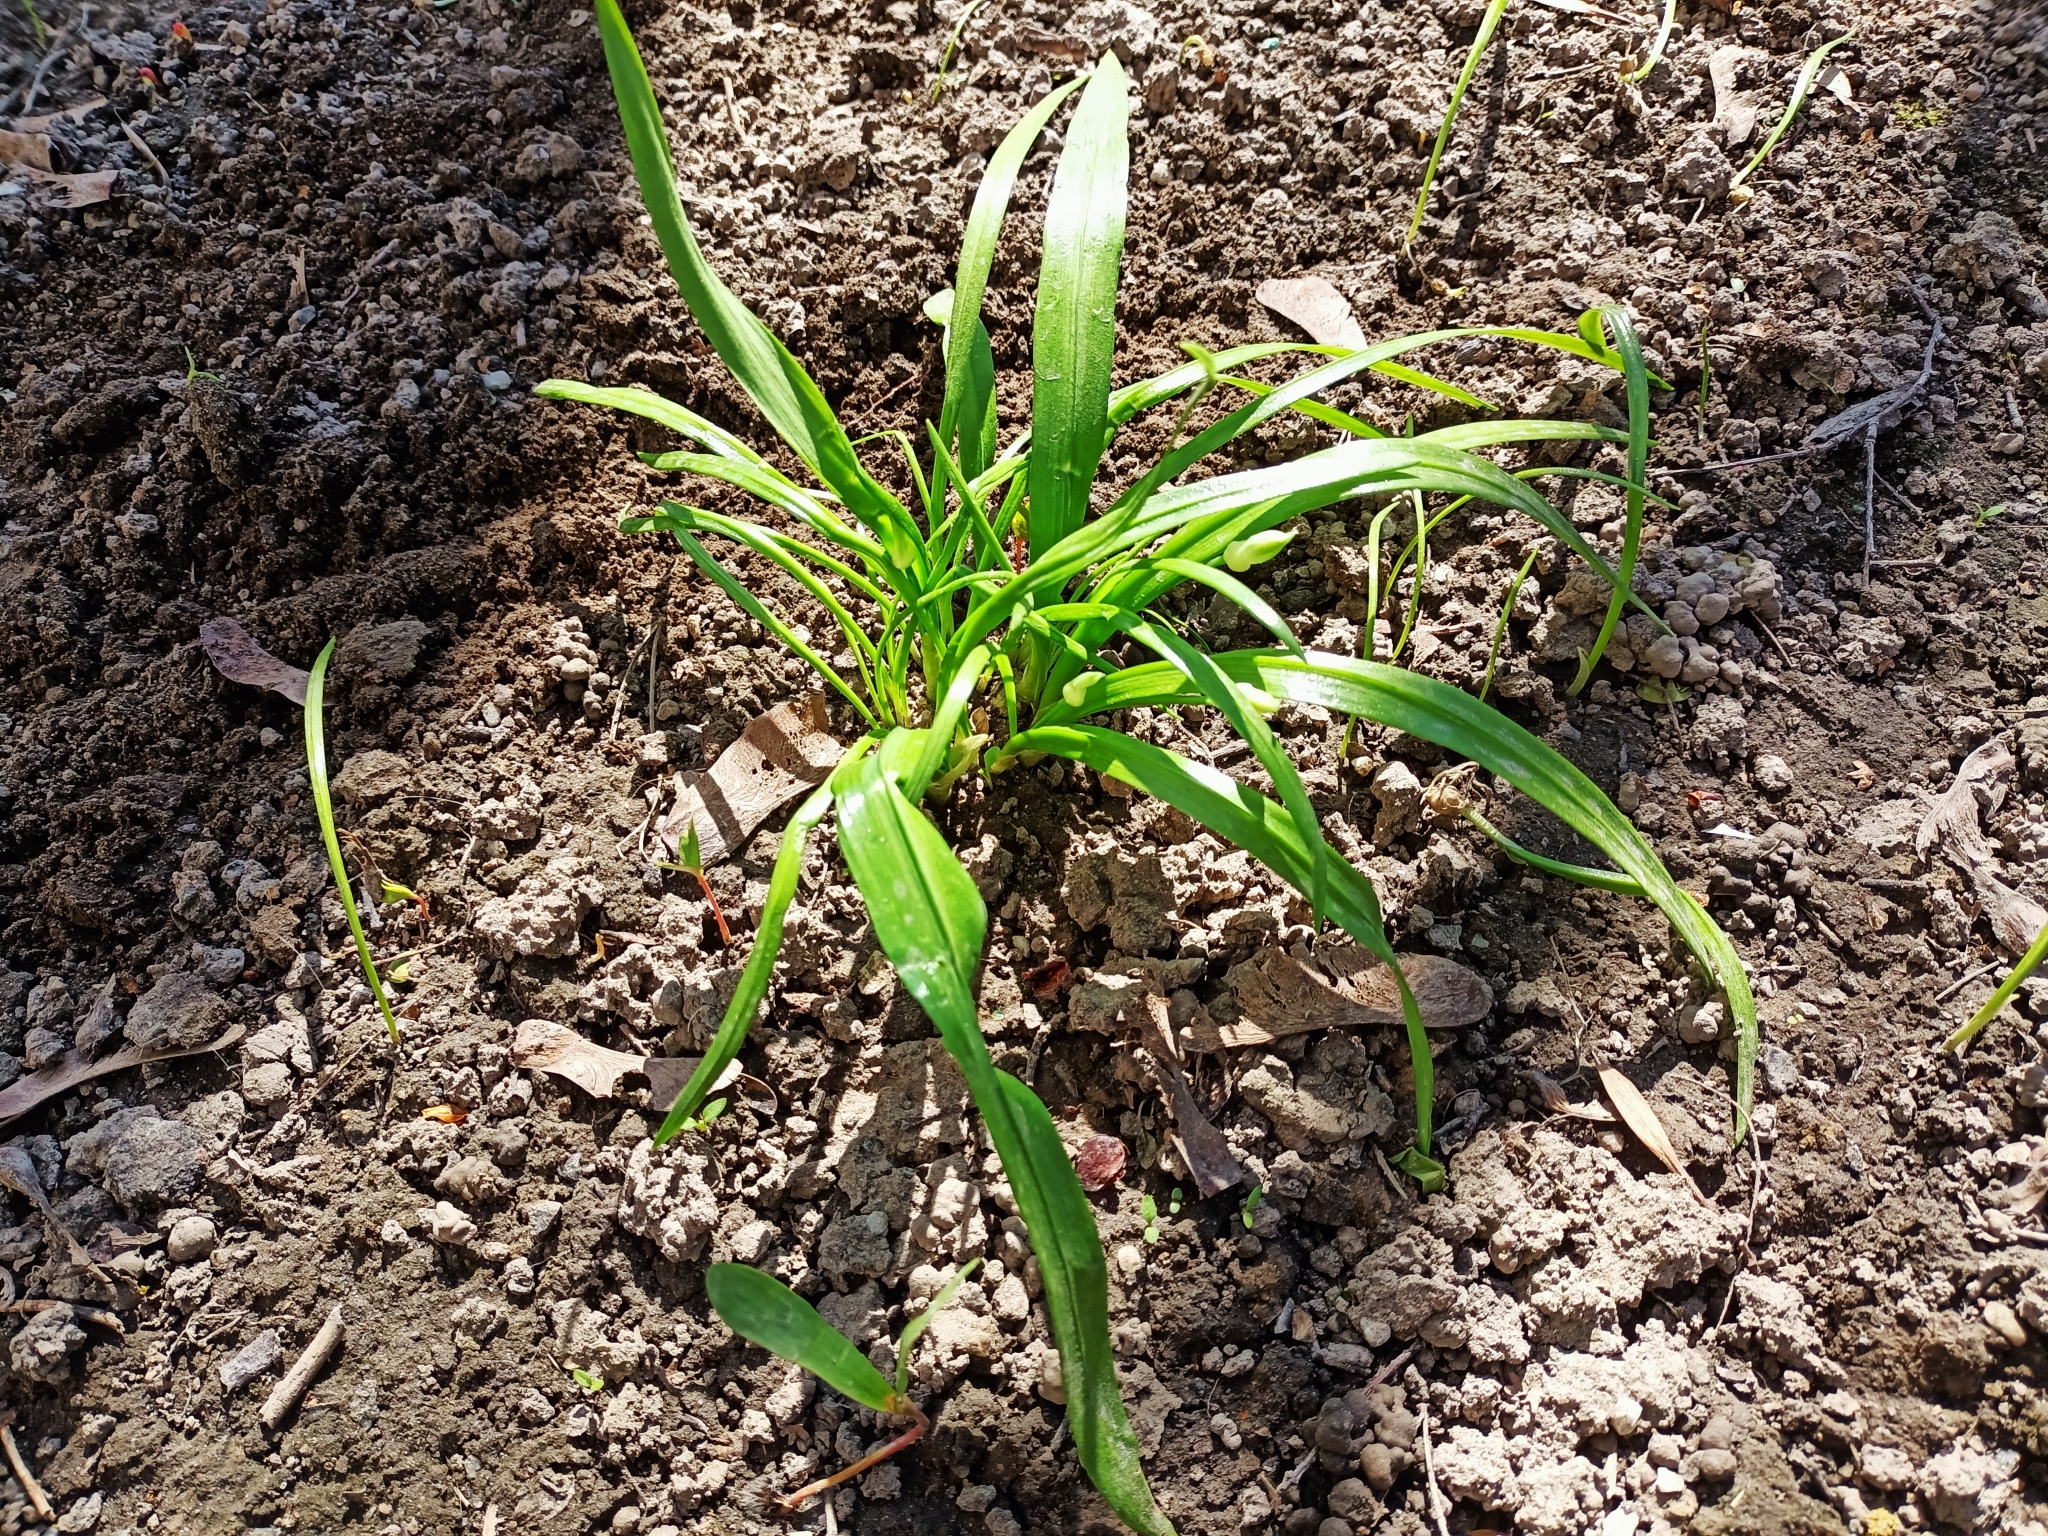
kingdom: Plantae
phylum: Tracheophyta
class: Liliopsida
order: Asparagales
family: Amaryllidaceae
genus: Allium
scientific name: Allium paradoxum
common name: Few-flowered garlic
